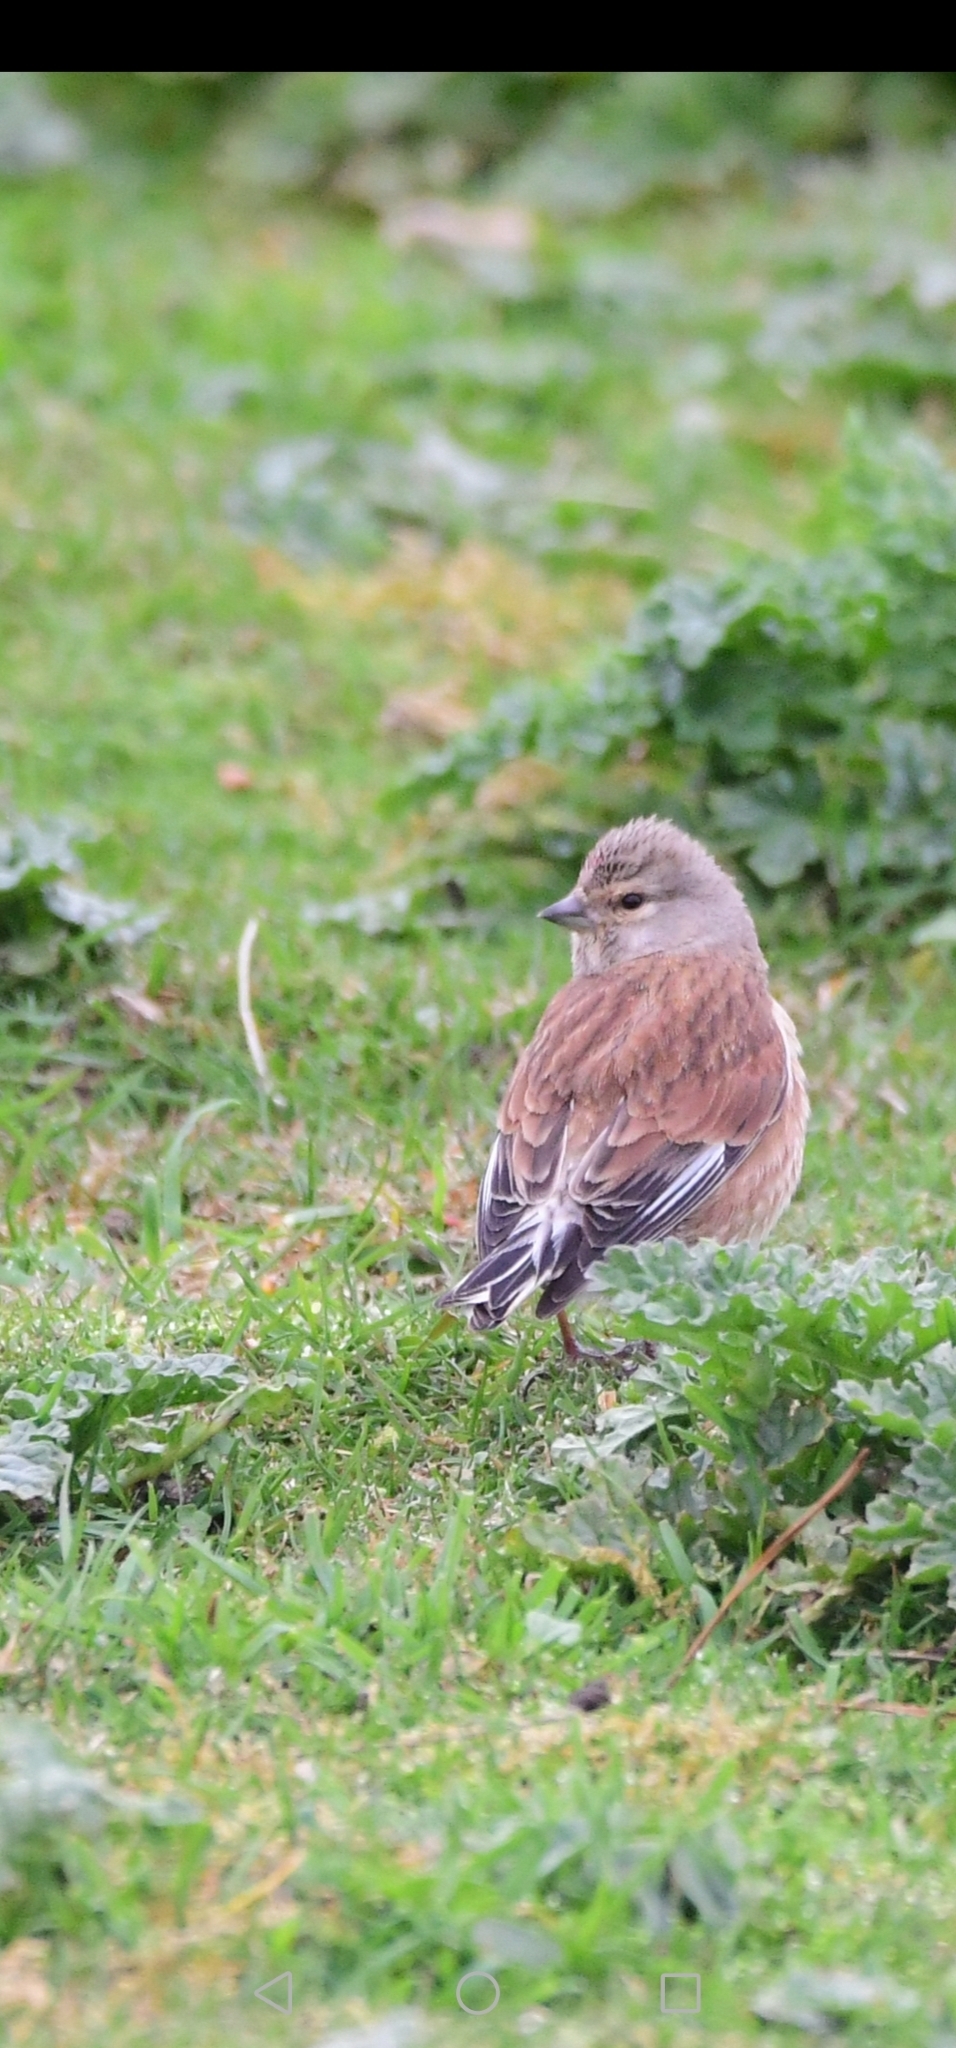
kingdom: Animalia
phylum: Chordata
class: Aves
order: Passeriformes
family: Fringillidae
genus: Linaria
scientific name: Linaria cannabina
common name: Common linnet
